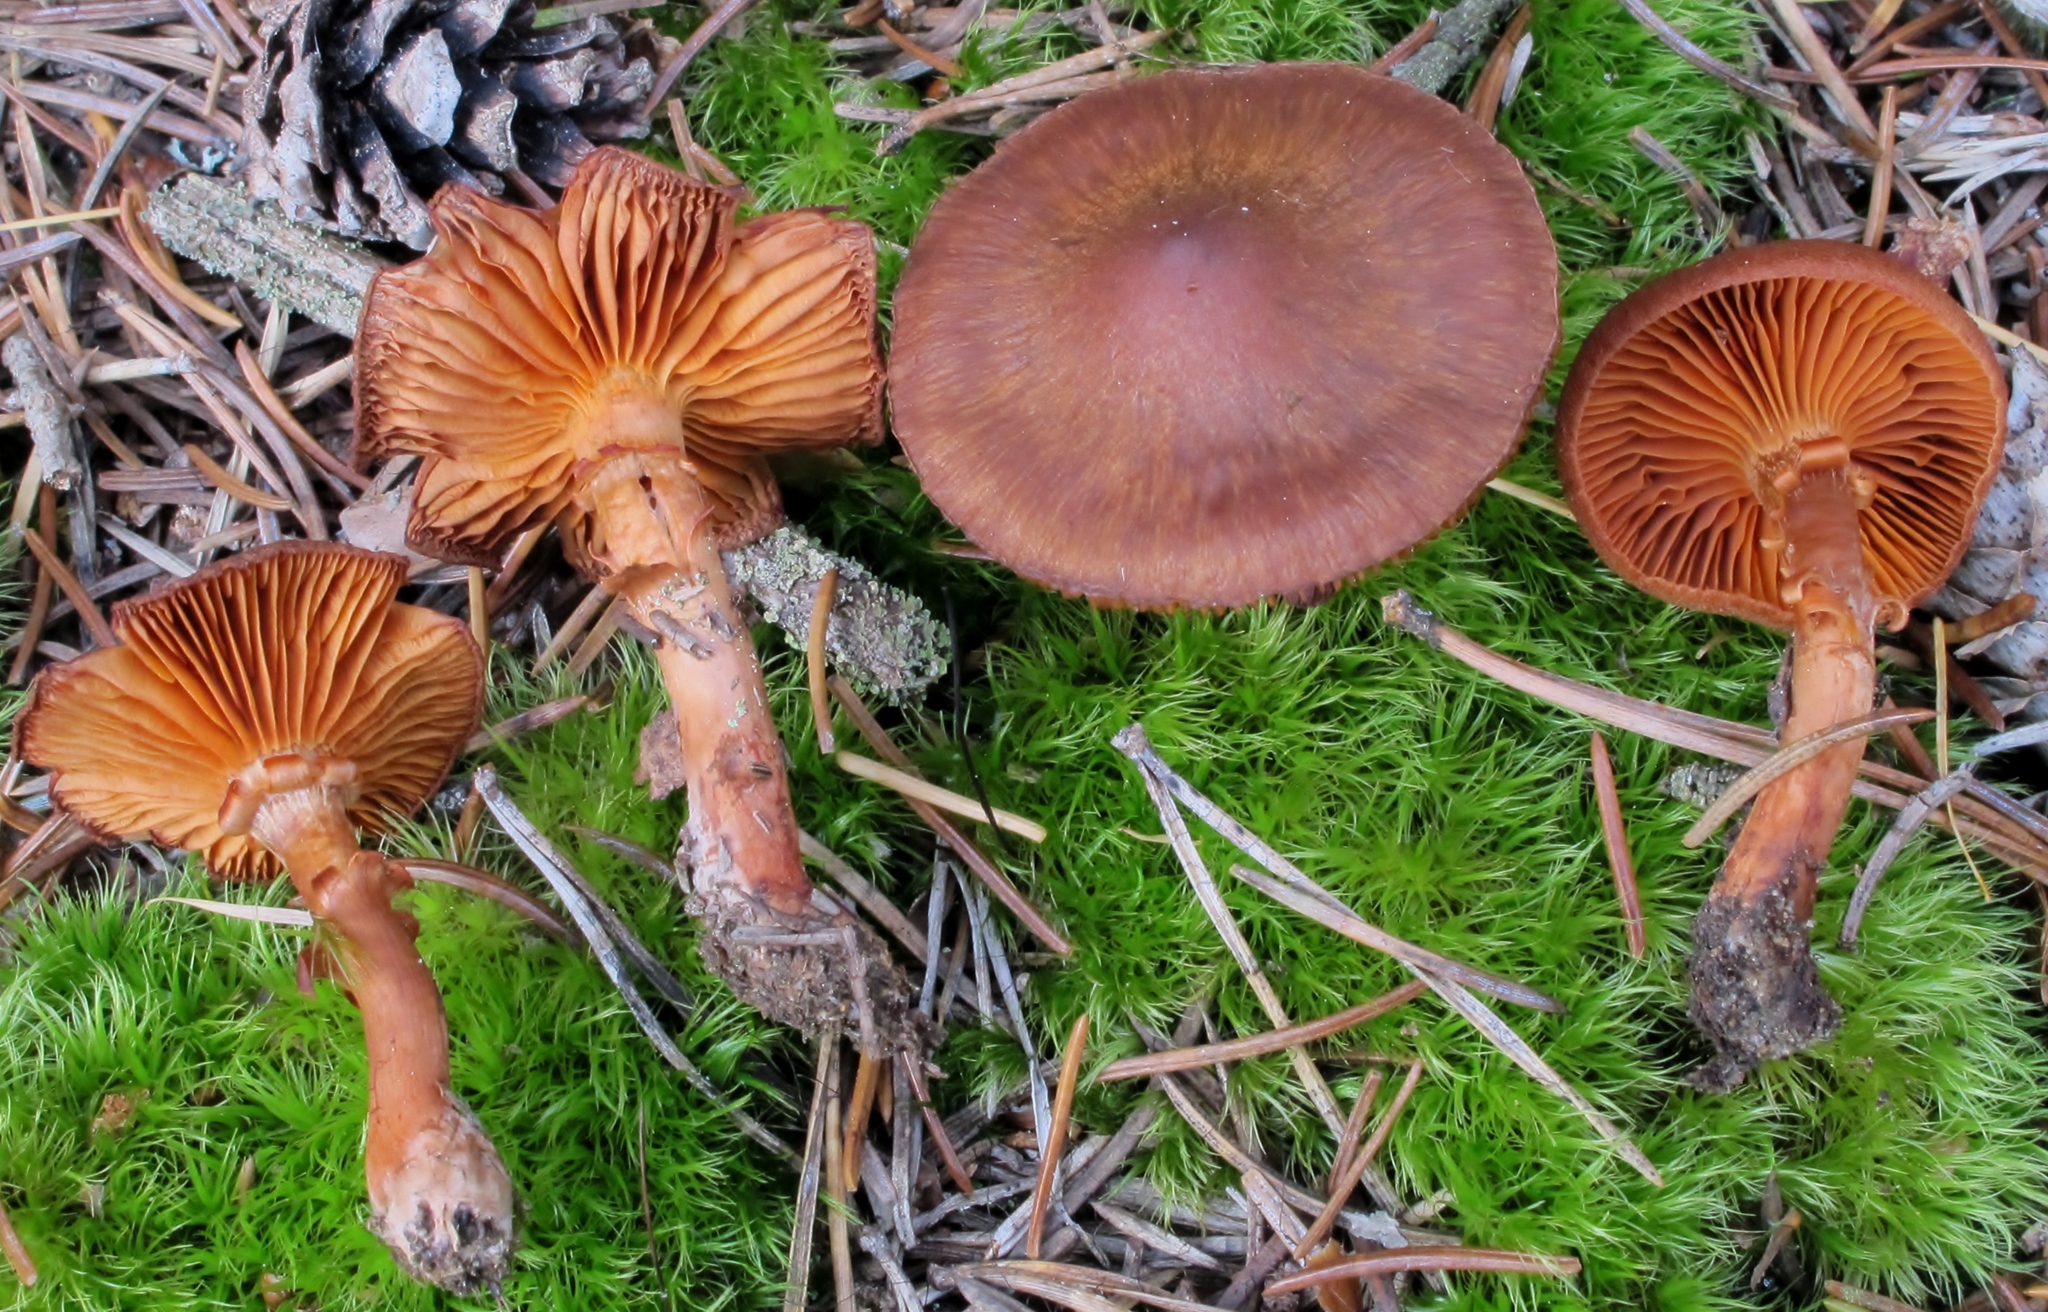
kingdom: Fungi
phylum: Basidiomycota
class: Agaricomycetes
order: Agaricales
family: Cortinariaceae
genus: Cortinarius
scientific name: Cortinarius cinnamomeus
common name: Cinnamon webcap
